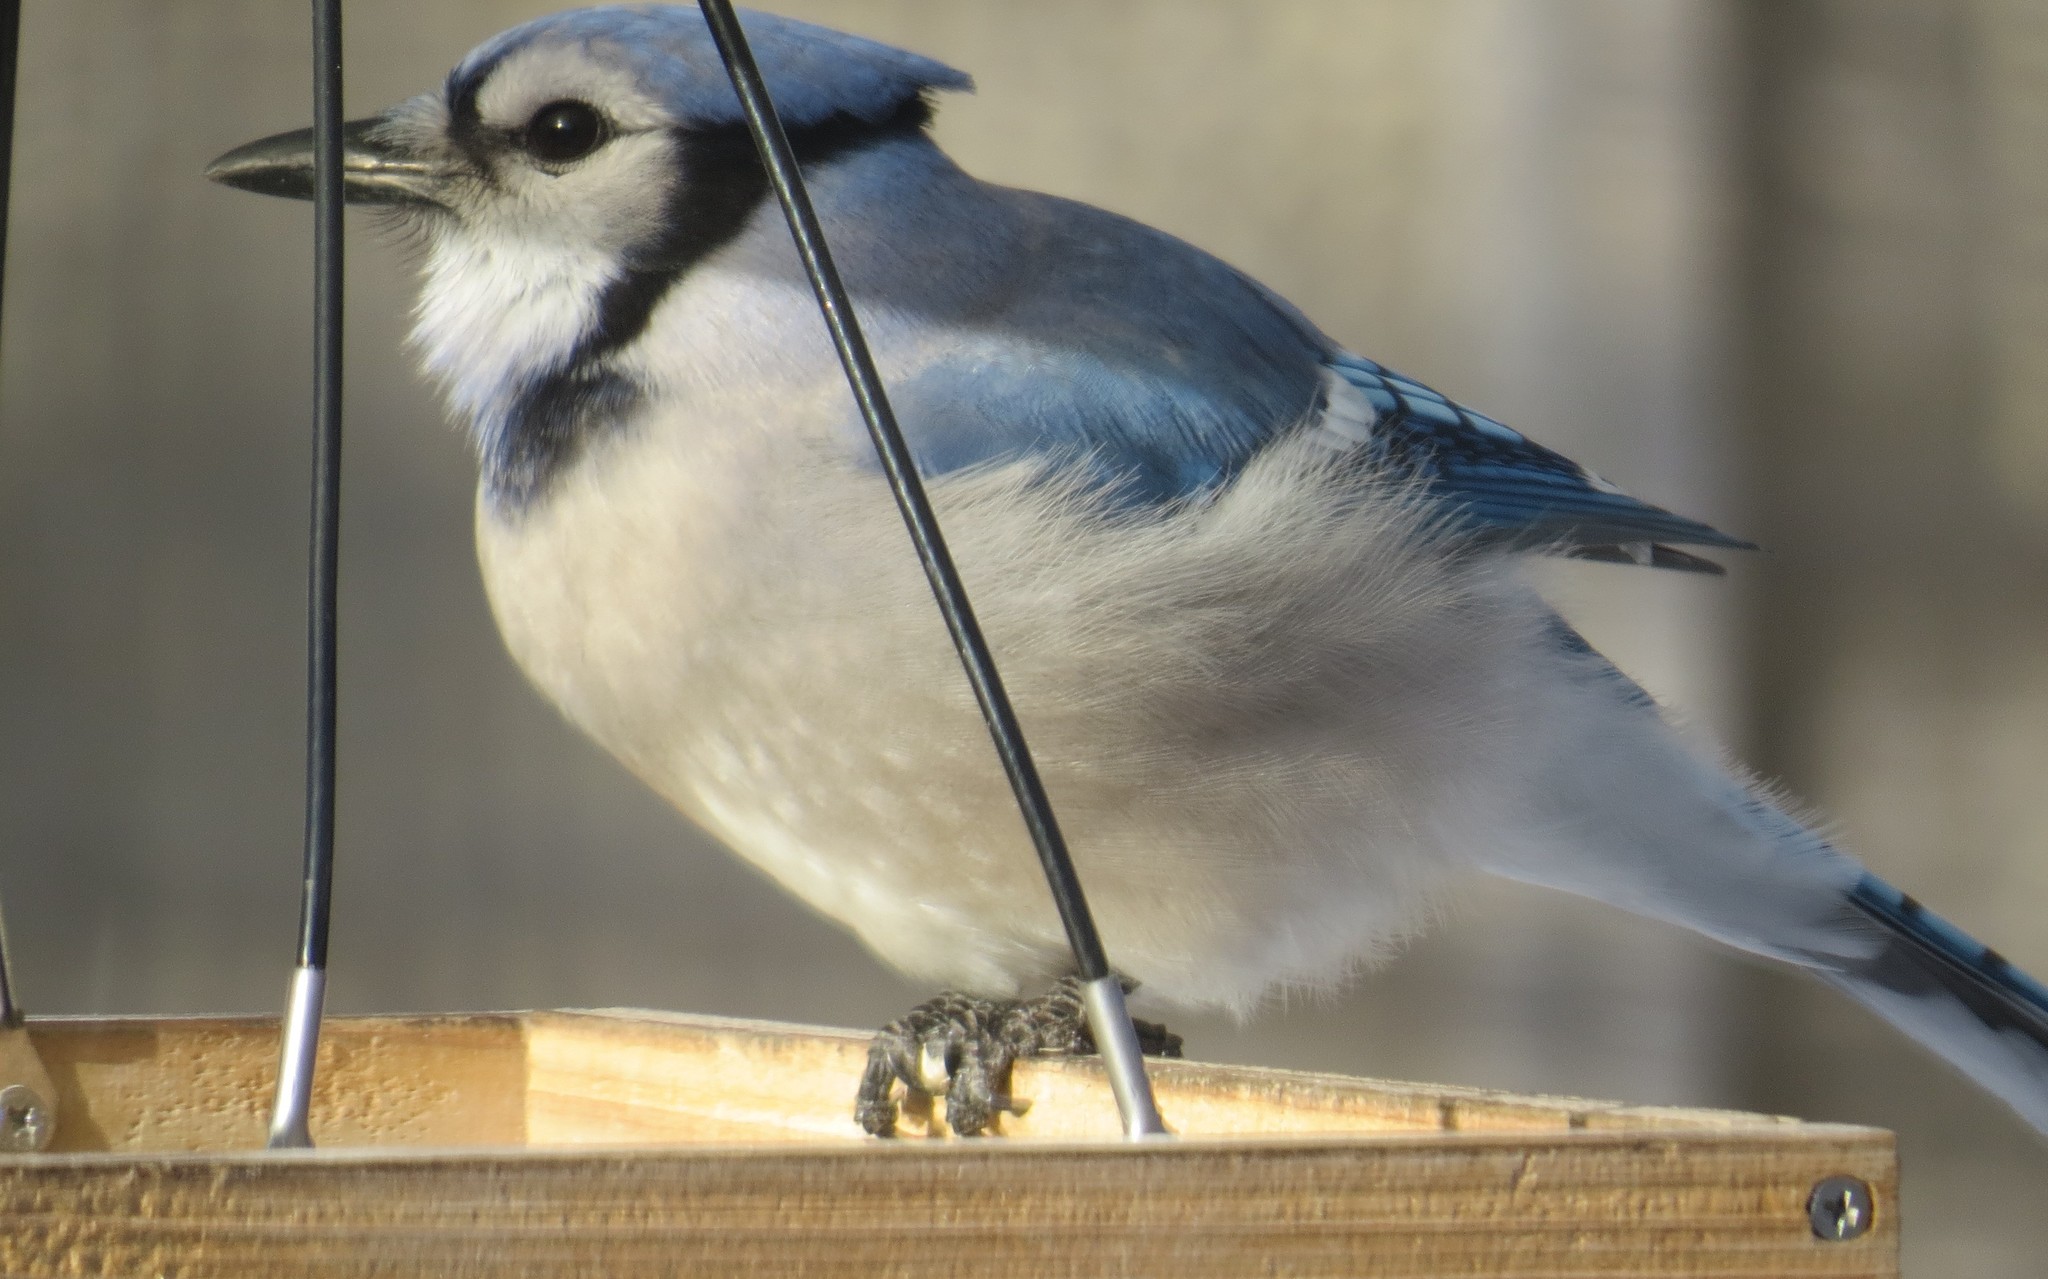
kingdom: Animalia
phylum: Chordata
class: Aves
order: Passeriformes
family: Corvidae
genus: Cyanocitta
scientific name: Cyanocitta cristata
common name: Blue jay
